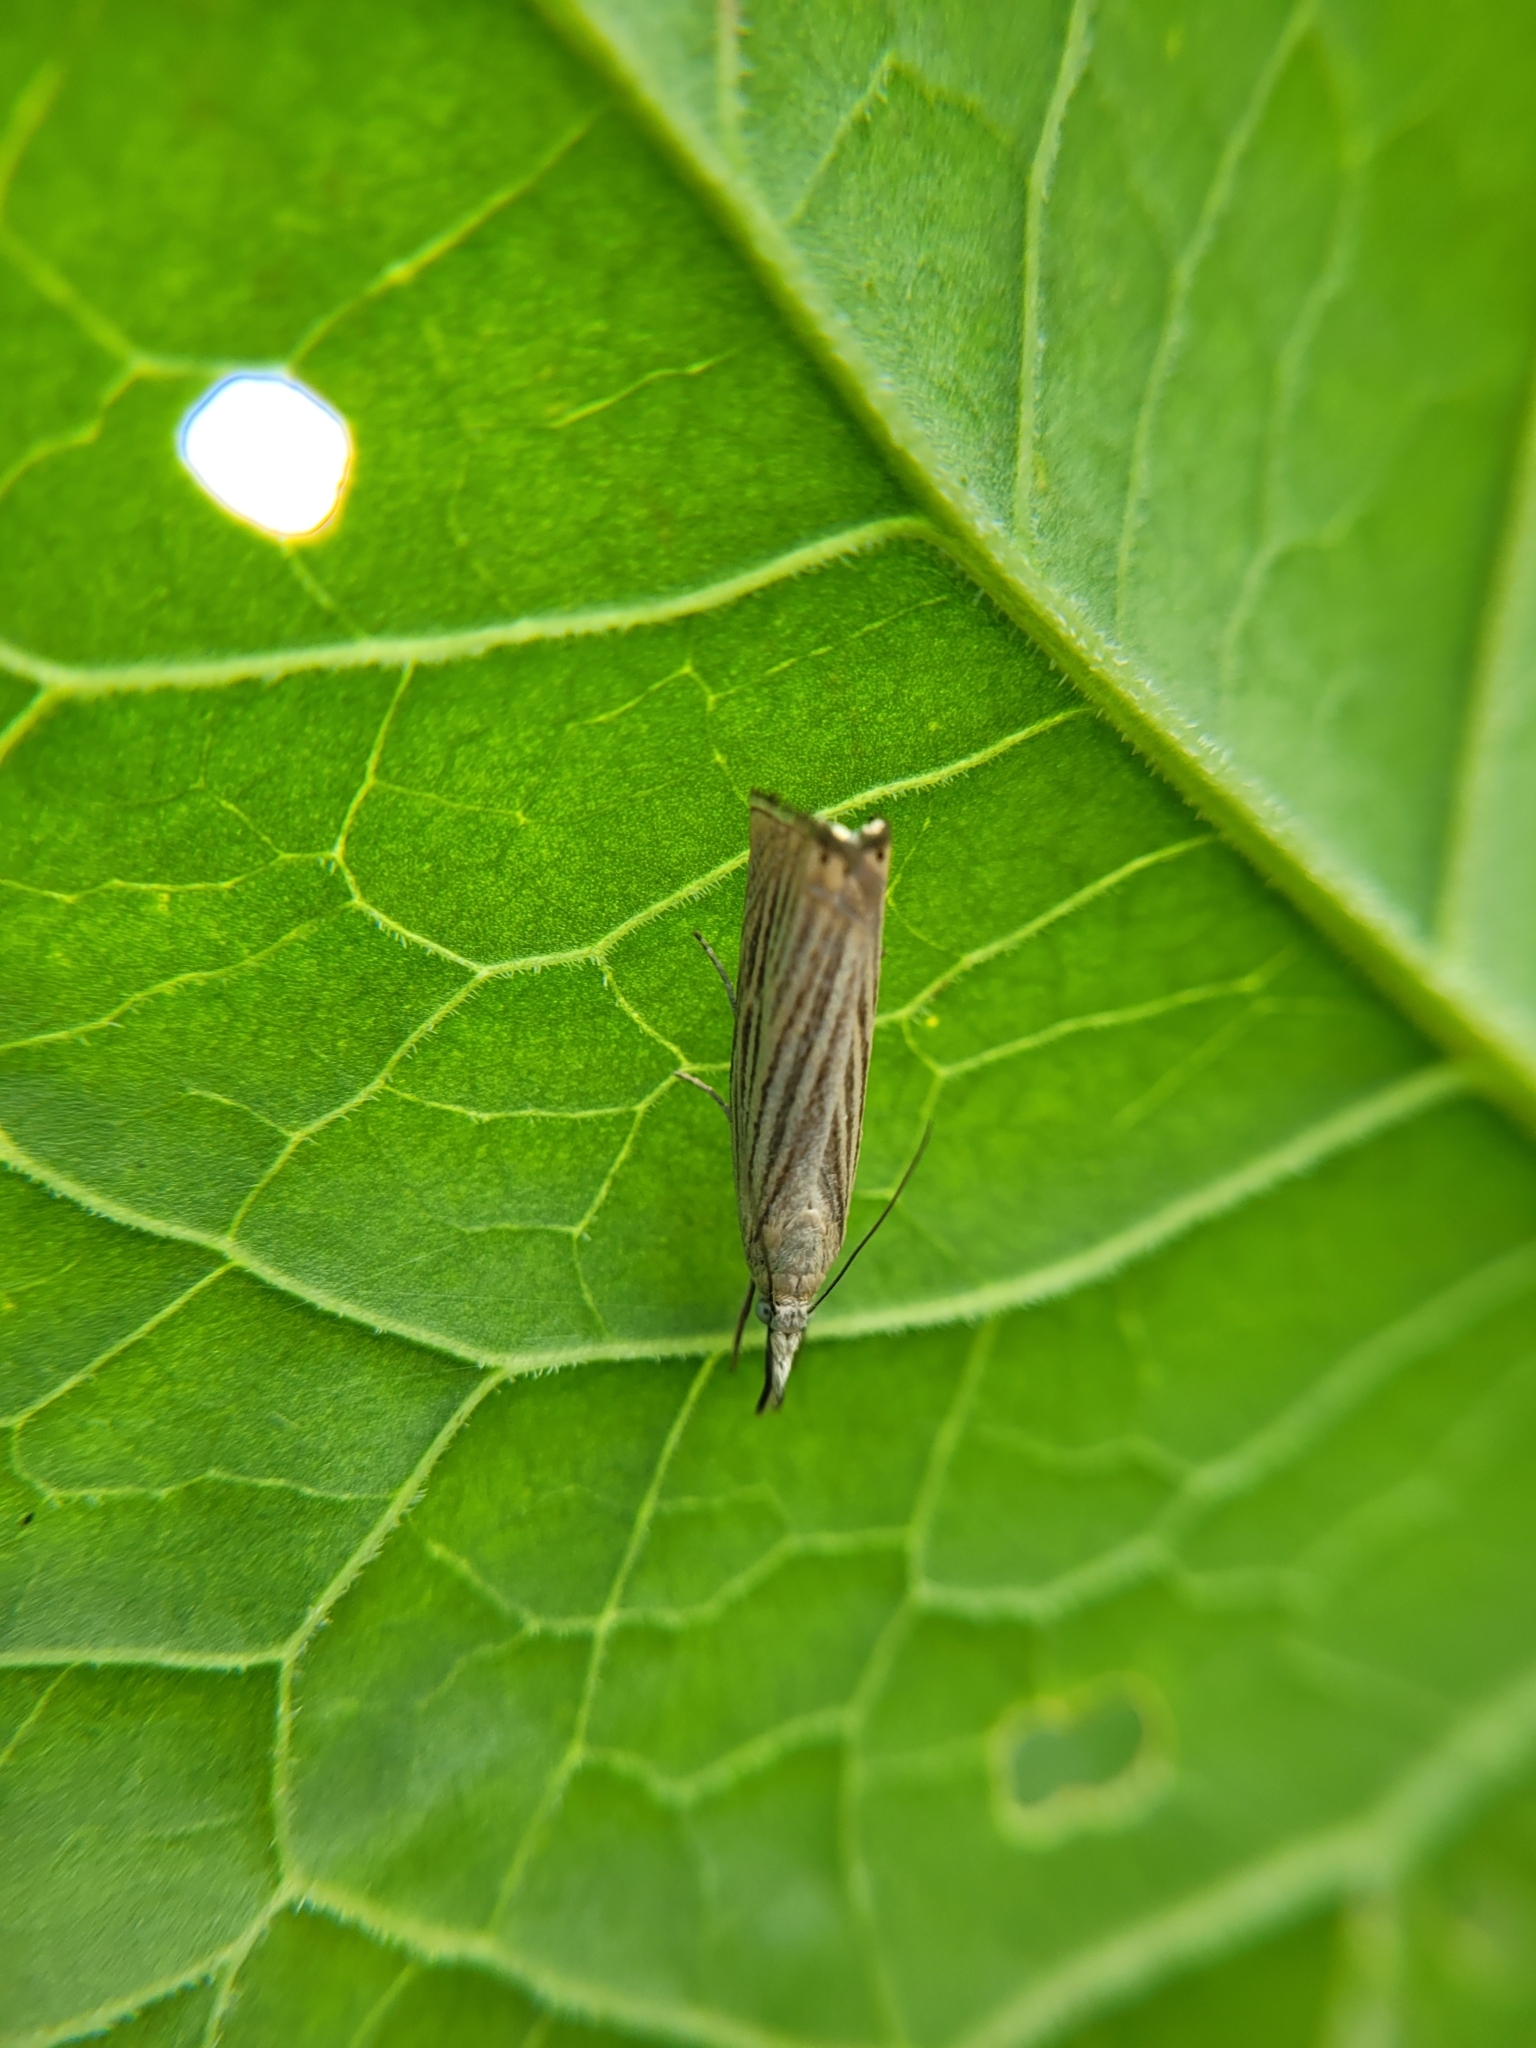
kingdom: Animalia
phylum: Arthropoda
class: Insecta
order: Lepidoptera
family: Crambidae
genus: Chrysoteuchia
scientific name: Chrysoteuchia culmella
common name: Garden grass-veneer
